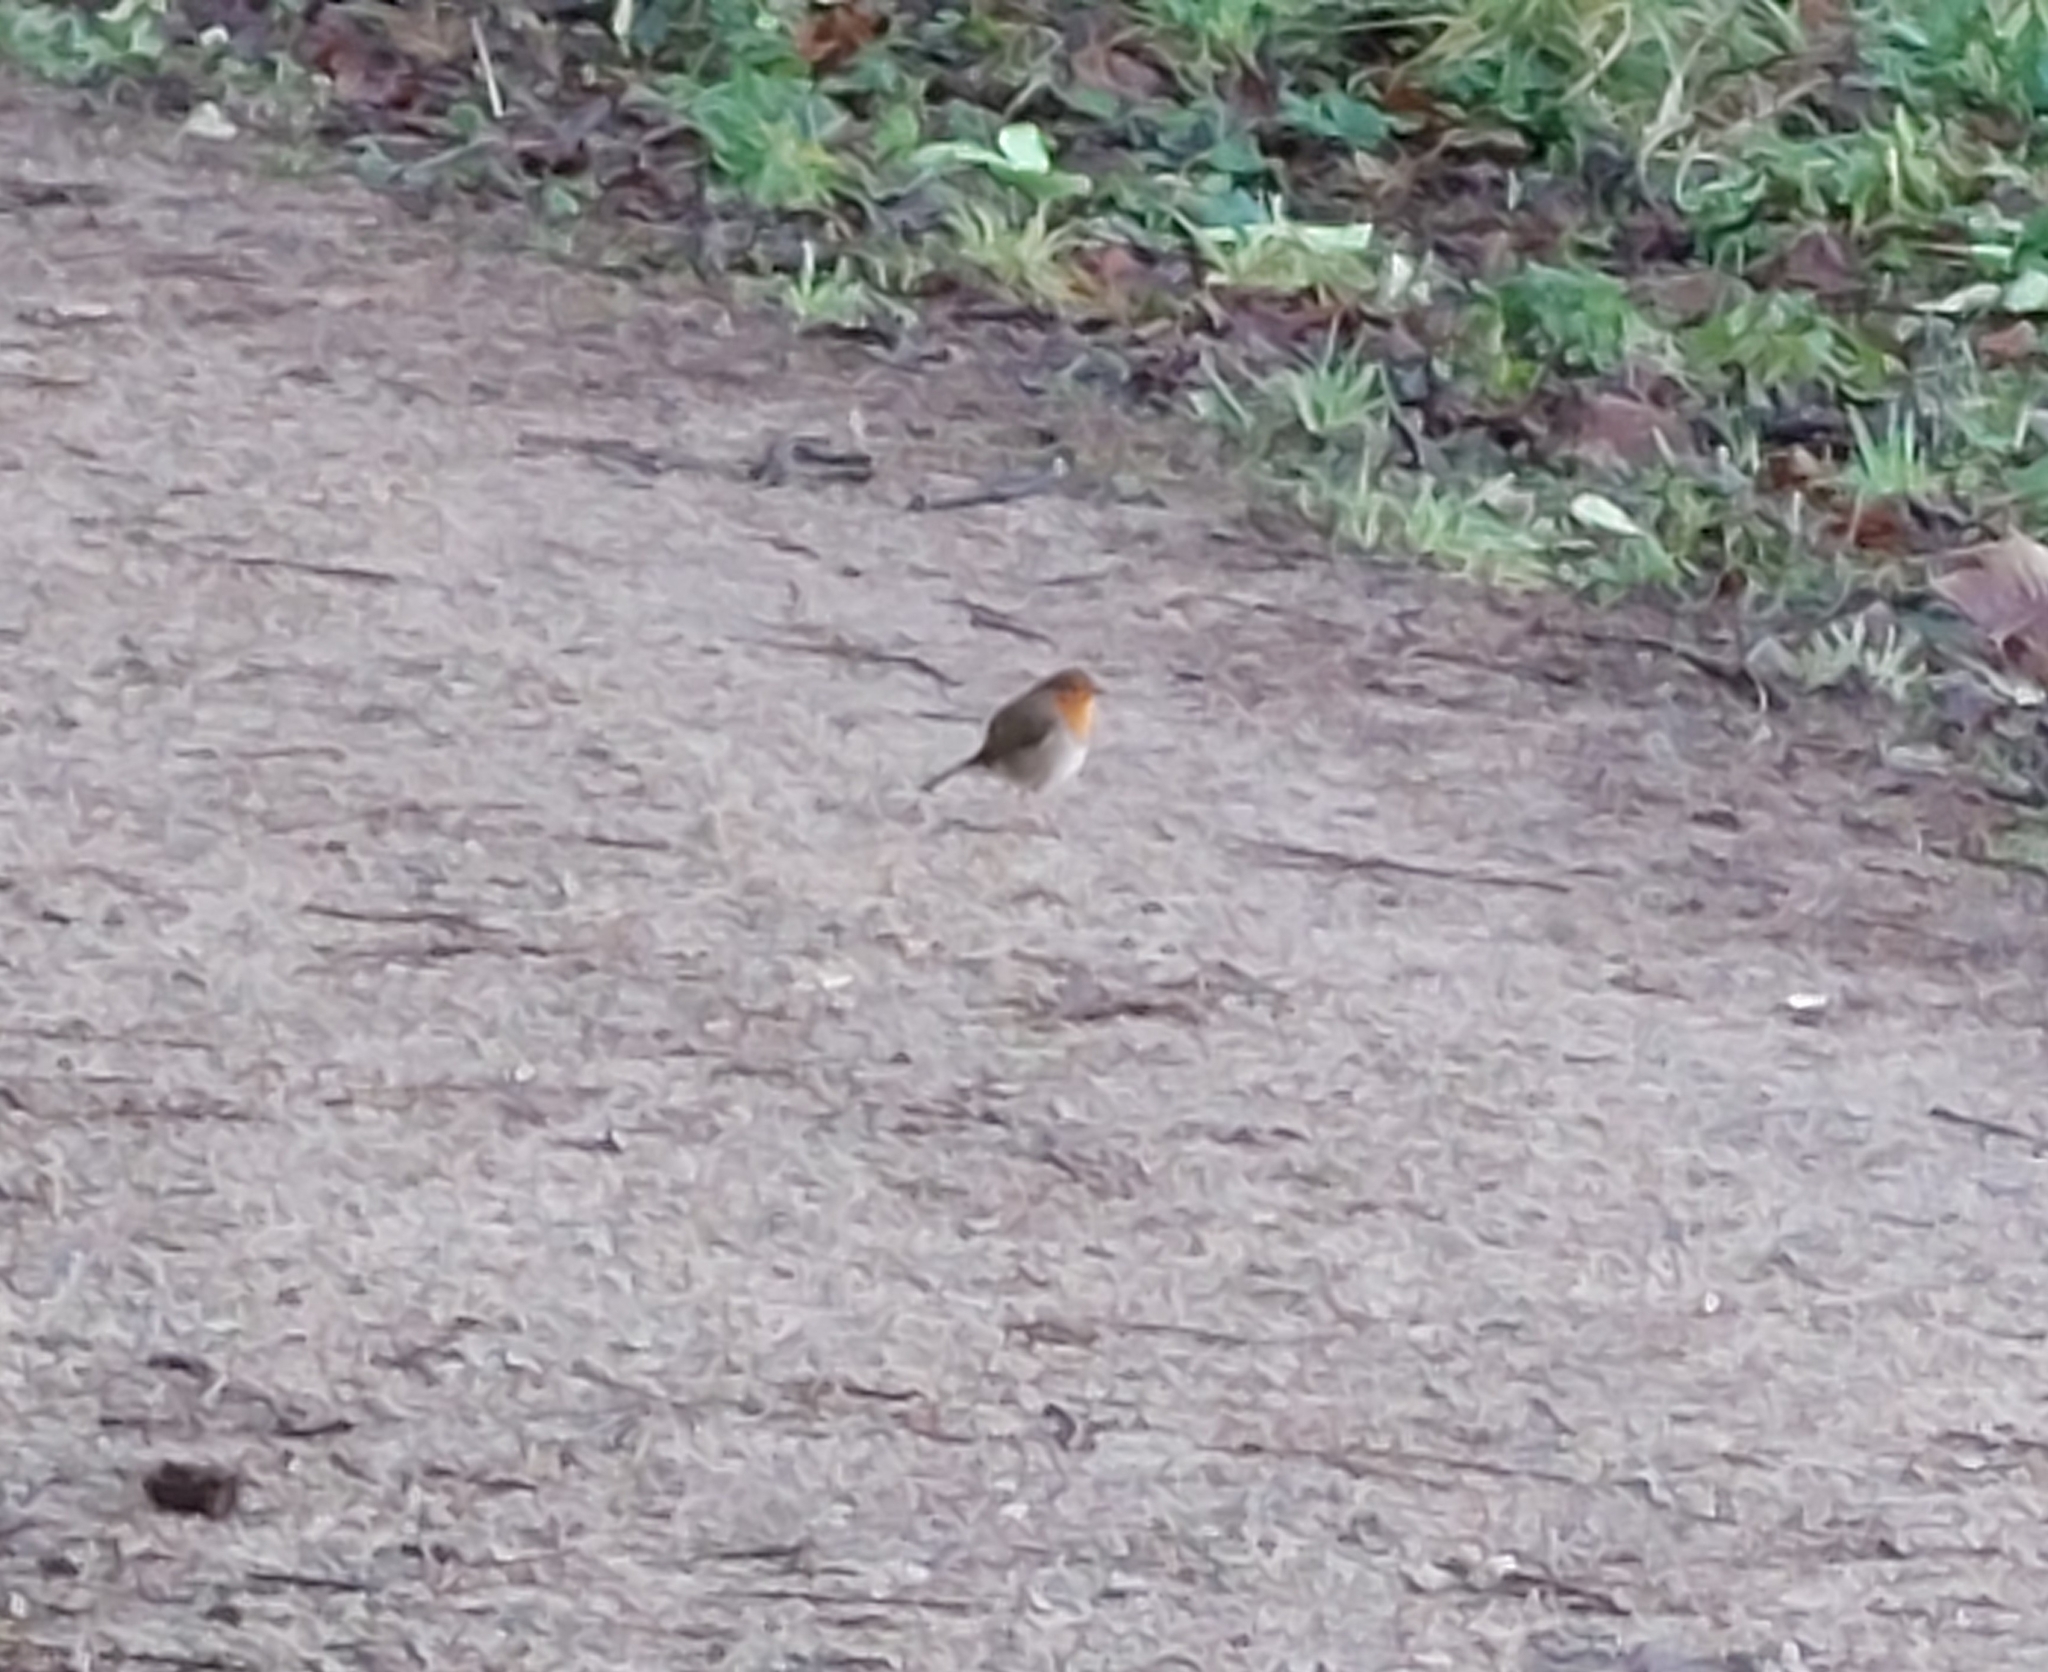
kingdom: Animalia
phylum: Chordata
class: Aves
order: Passeriformes
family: Muscicapidae
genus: Erithacus
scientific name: Erithacus rubecula
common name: European robin
